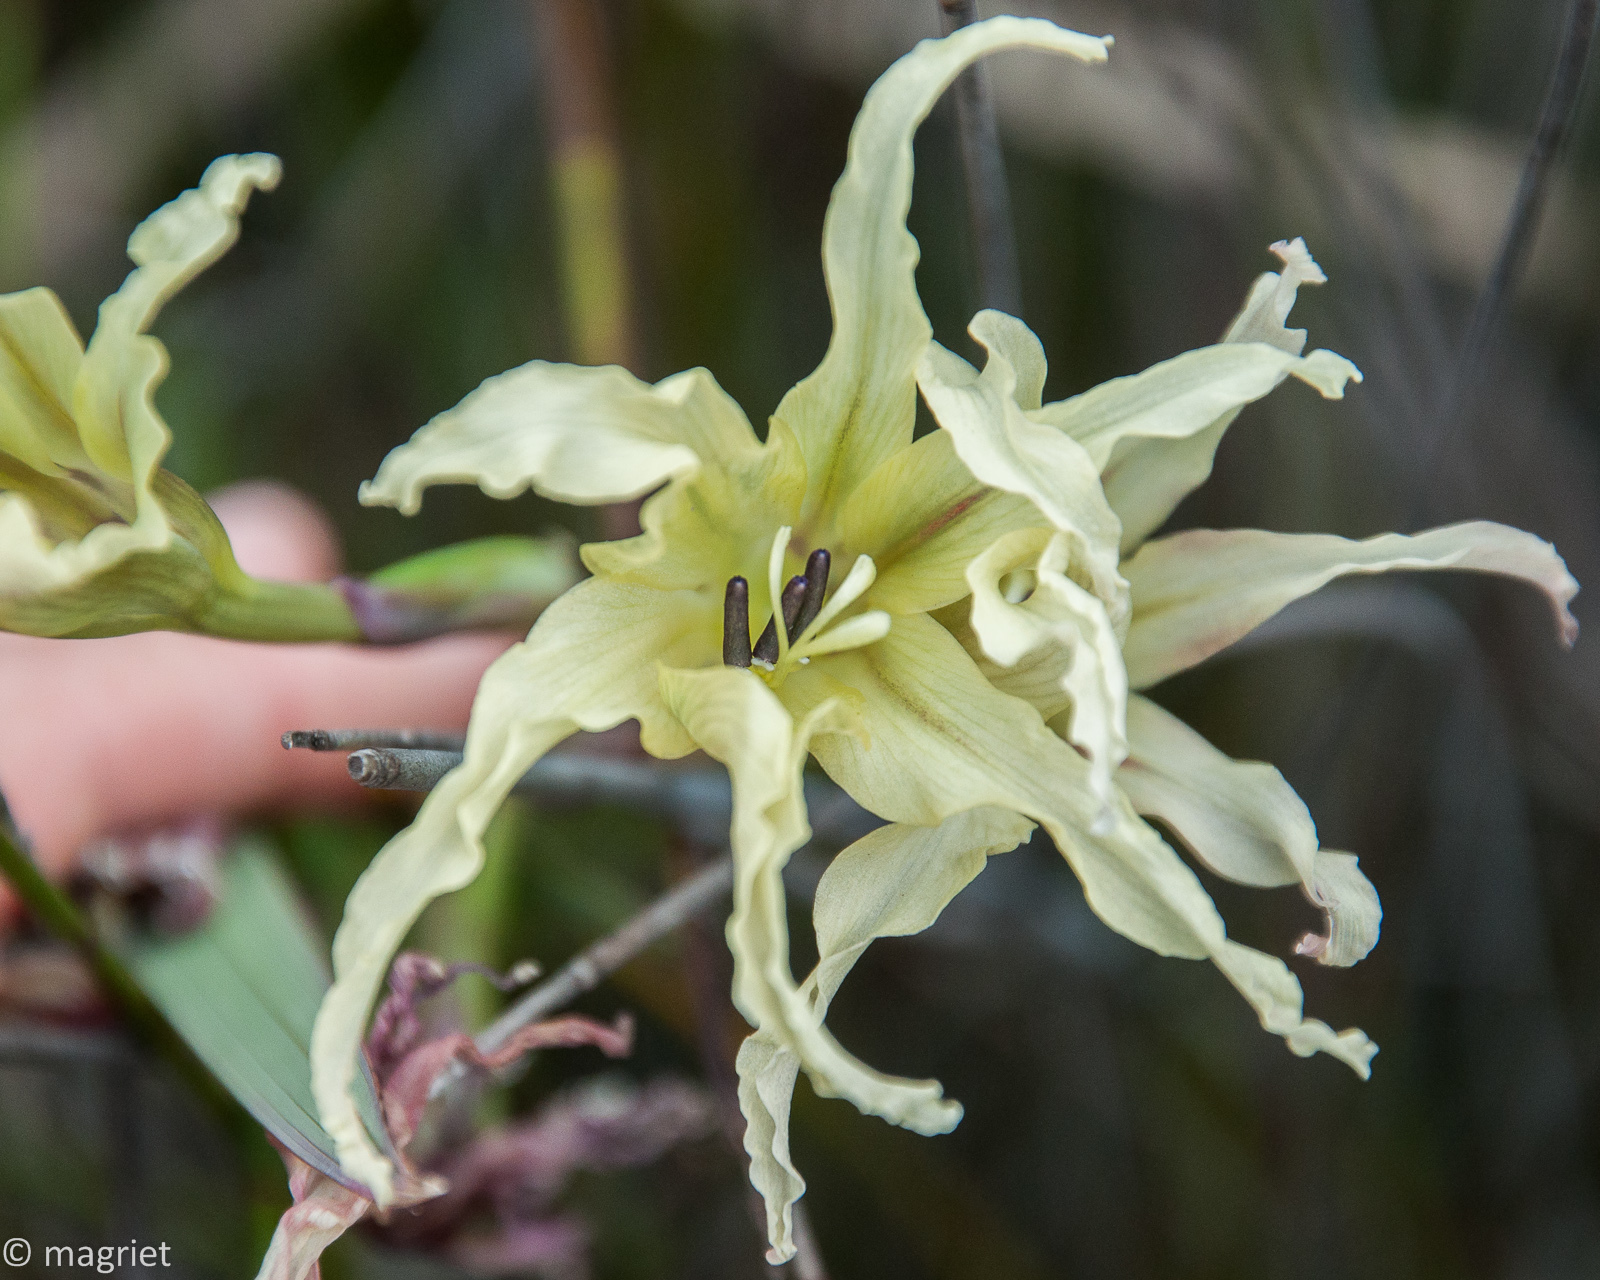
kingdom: Plantae
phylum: Tracheophyta
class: Liliopsida
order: Asparagales
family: Iridaceae
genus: Gladiolus
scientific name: Gladiolus undulatus
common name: Large painted-lady
